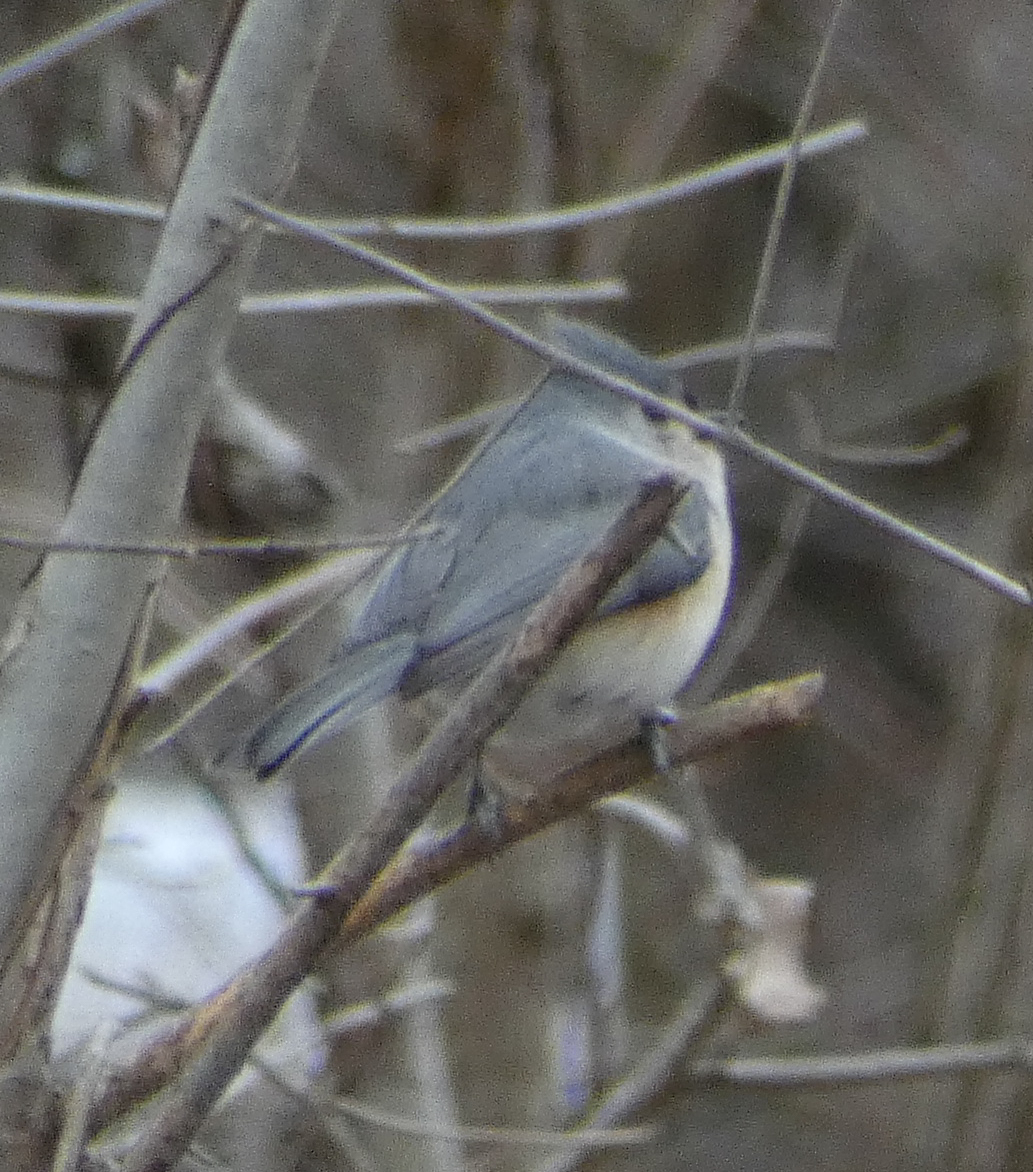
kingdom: Animalia
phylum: Chordata
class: Aves
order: Passeriformes
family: Paridae
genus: Baeolophus
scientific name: Baeolophus bicolor
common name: Tufted titmouse
